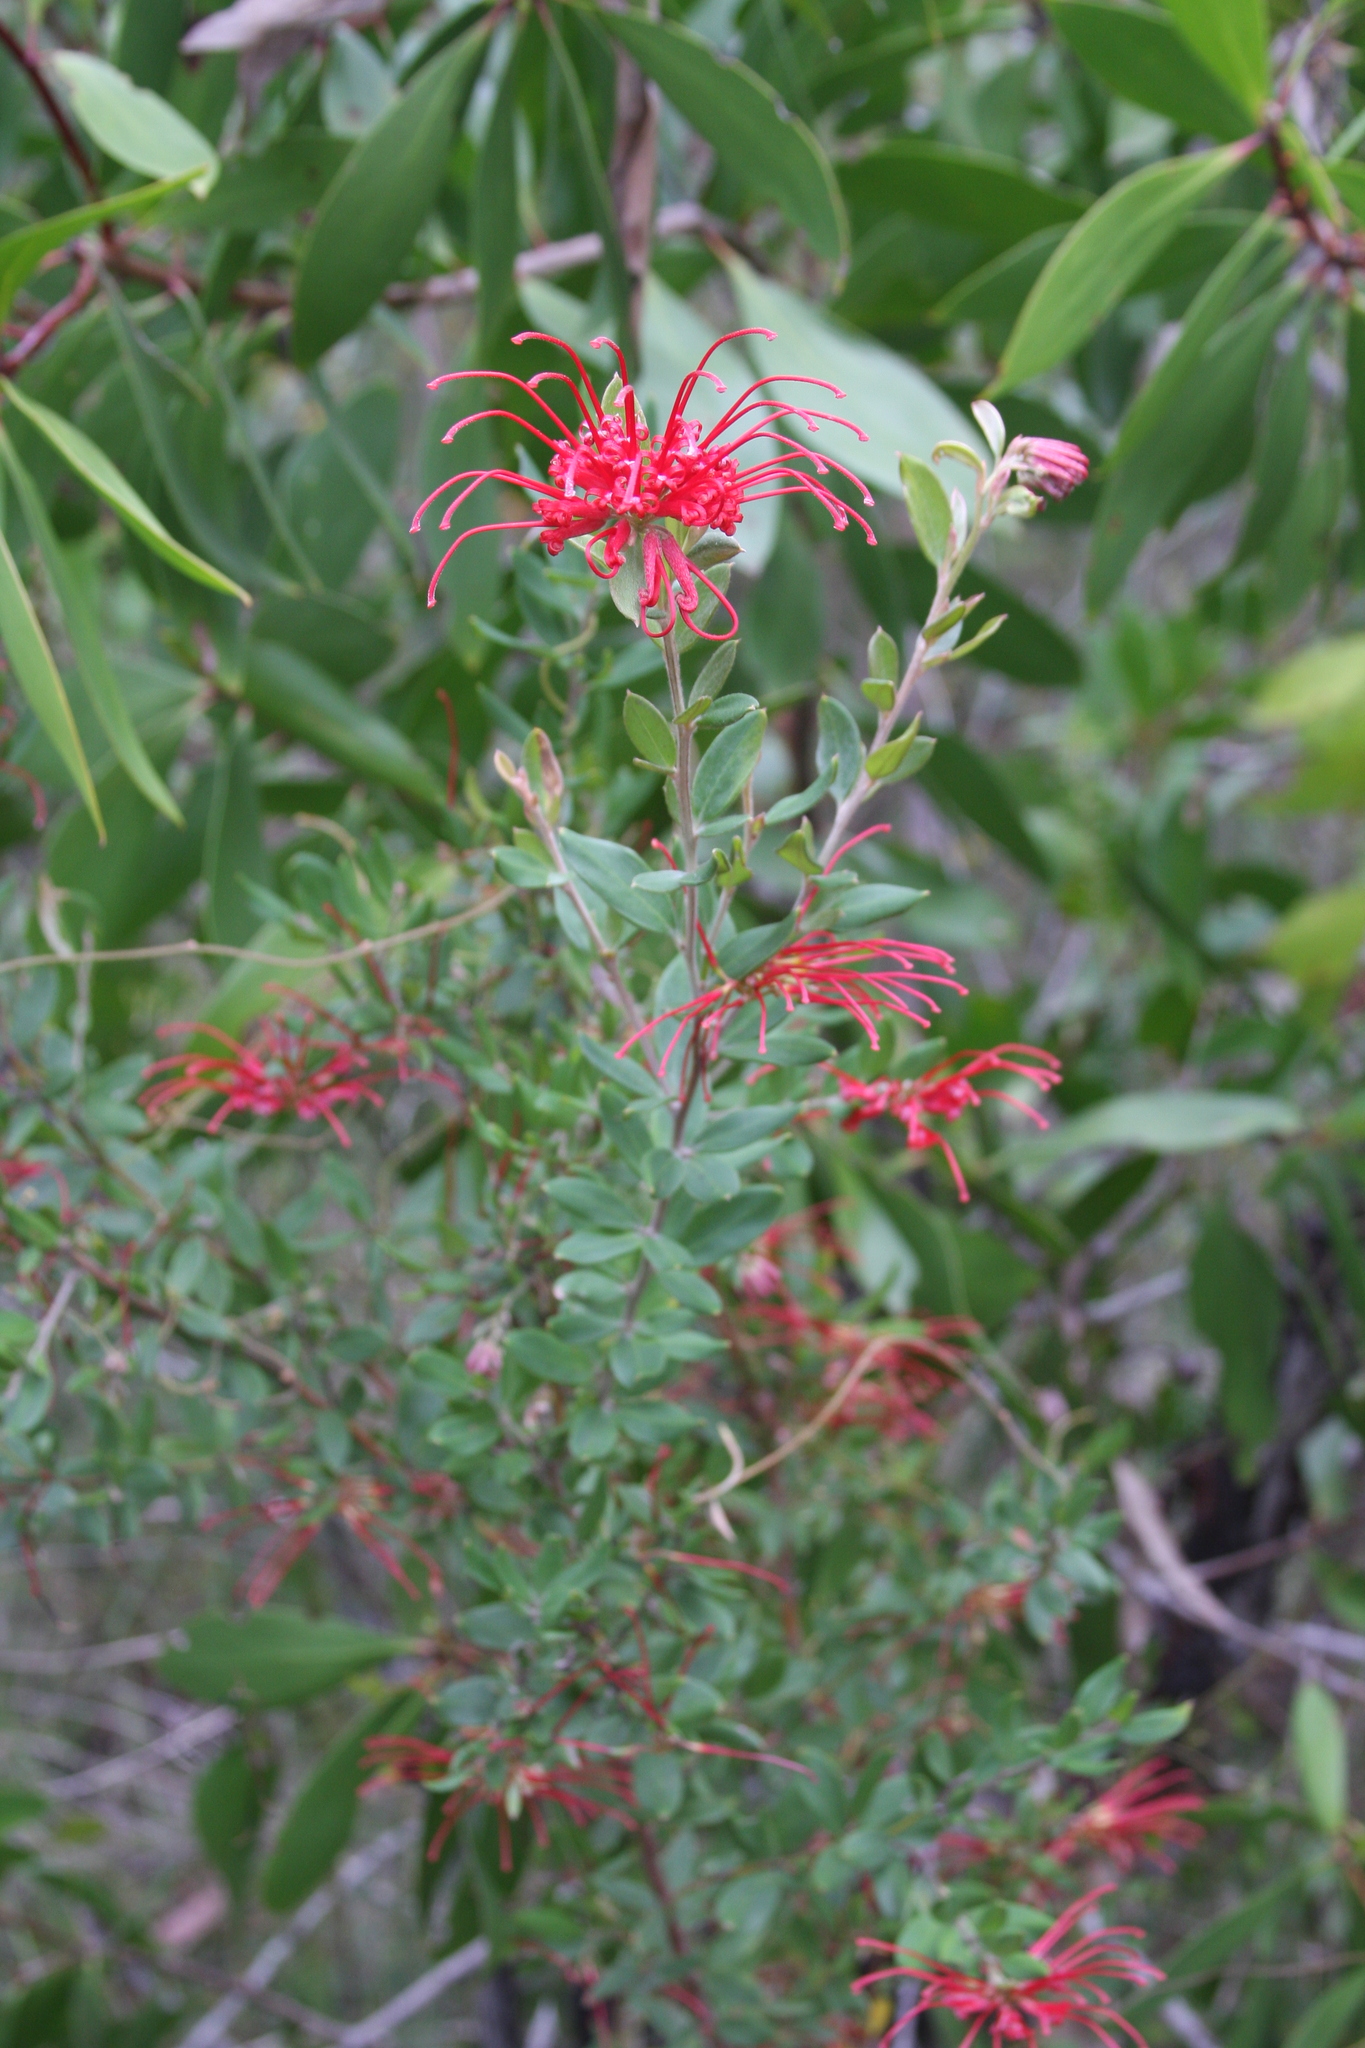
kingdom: Plantae
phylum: Tracheophyta
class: Magnoliopsida
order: Proteales
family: Proteaceae
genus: Grevillea
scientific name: Grevillea speciosa
